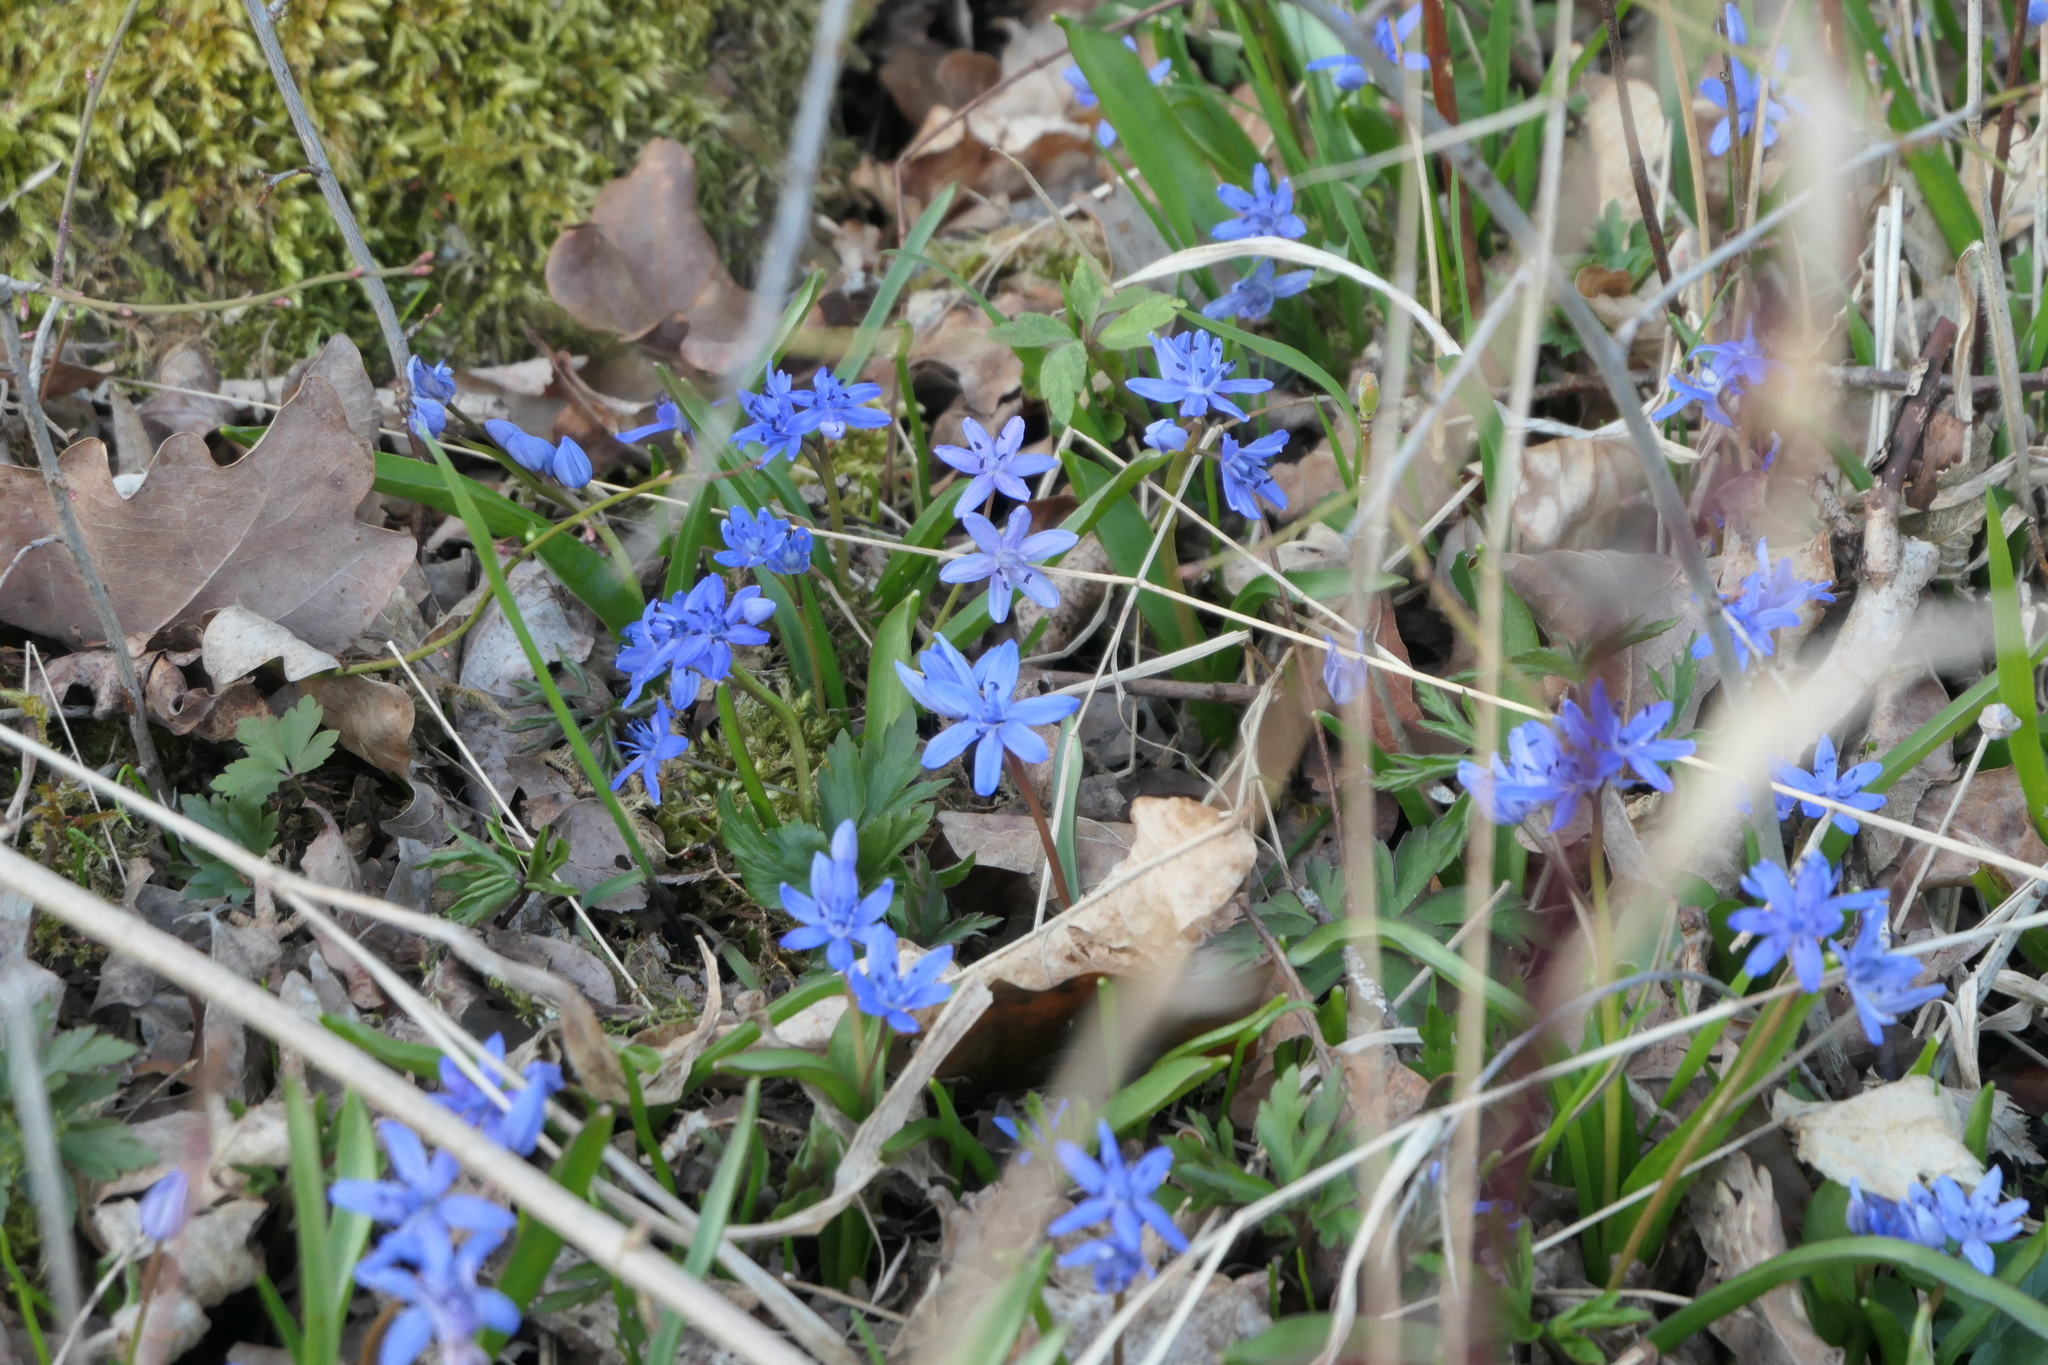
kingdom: Plantae
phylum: Tracheophyta
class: Liliopsida
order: Asparagales
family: Asparagaceae
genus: Scilla
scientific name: Scilla bifolia
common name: Alpine squill
